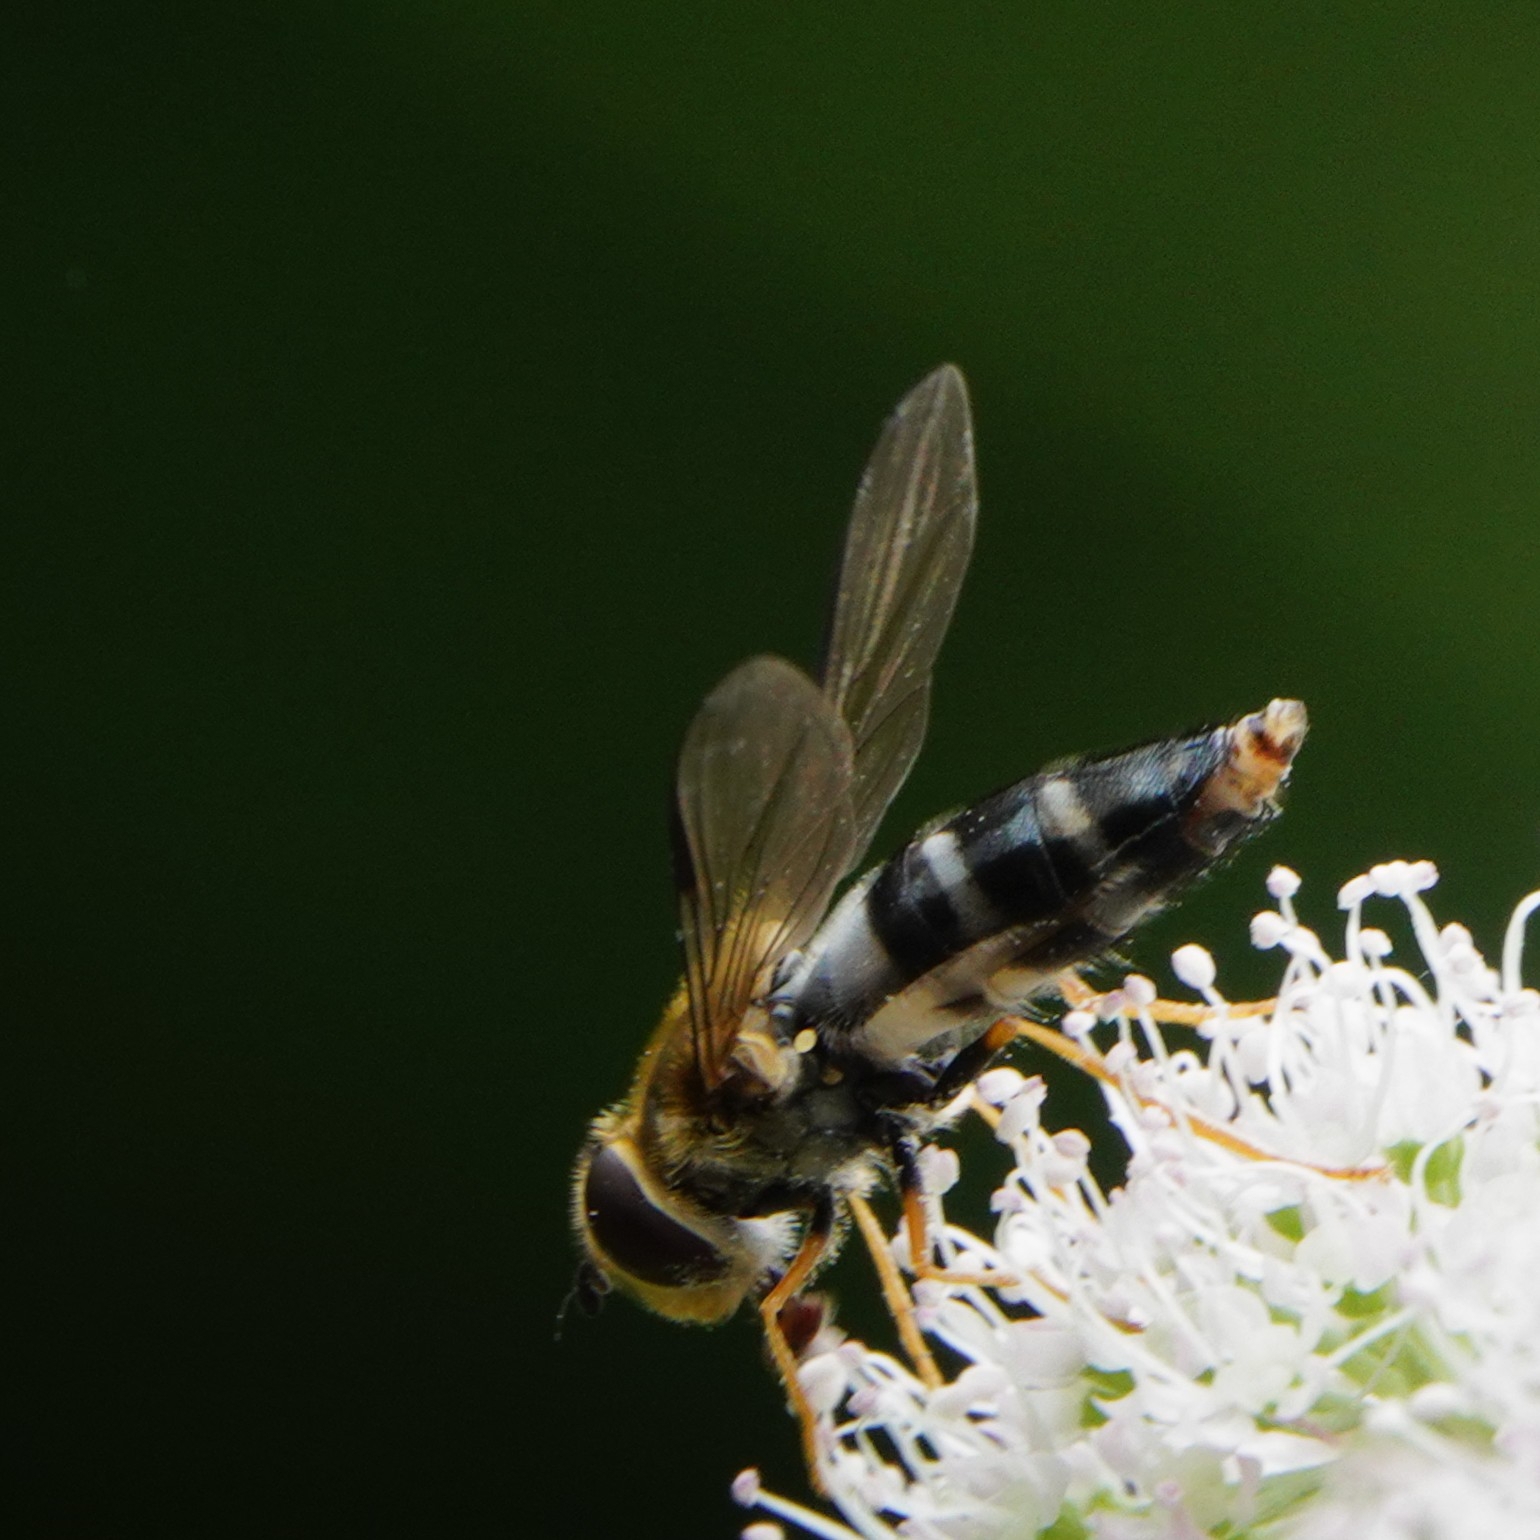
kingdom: Animalia
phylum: Arthropoda
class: Insecta
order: Diptera
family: Syrphidae
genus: Leucozona
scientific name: Leucozona glaucia
